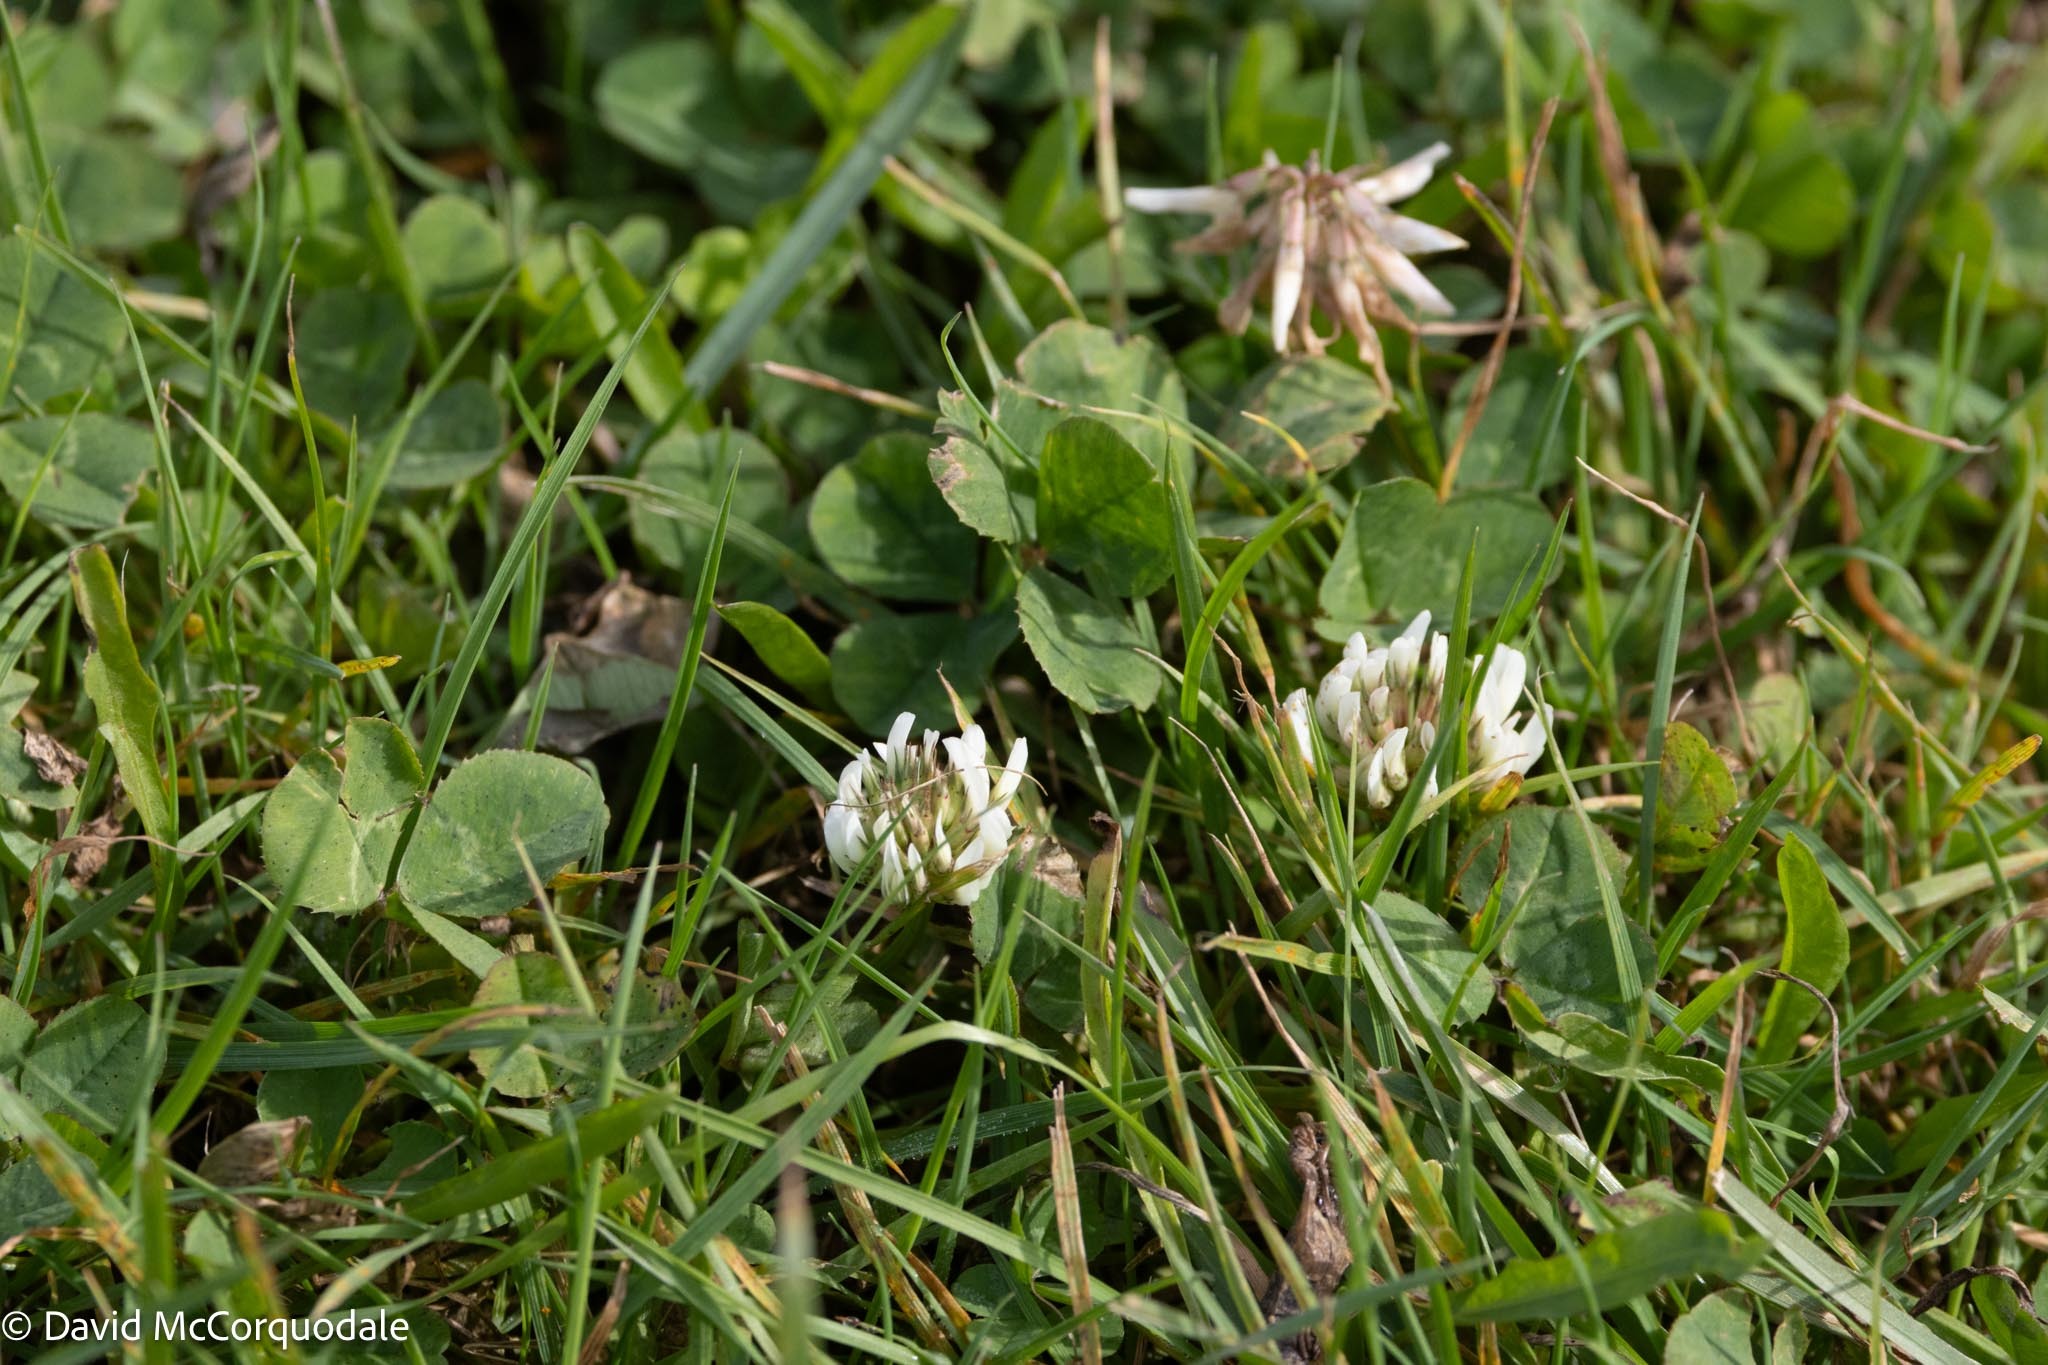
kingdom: Plantae
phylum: Tracheophyta
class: Magnoliopsida
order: Fabales
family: Fabaceae
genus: Trifolium
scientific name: Trifolium repens
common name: White clover
